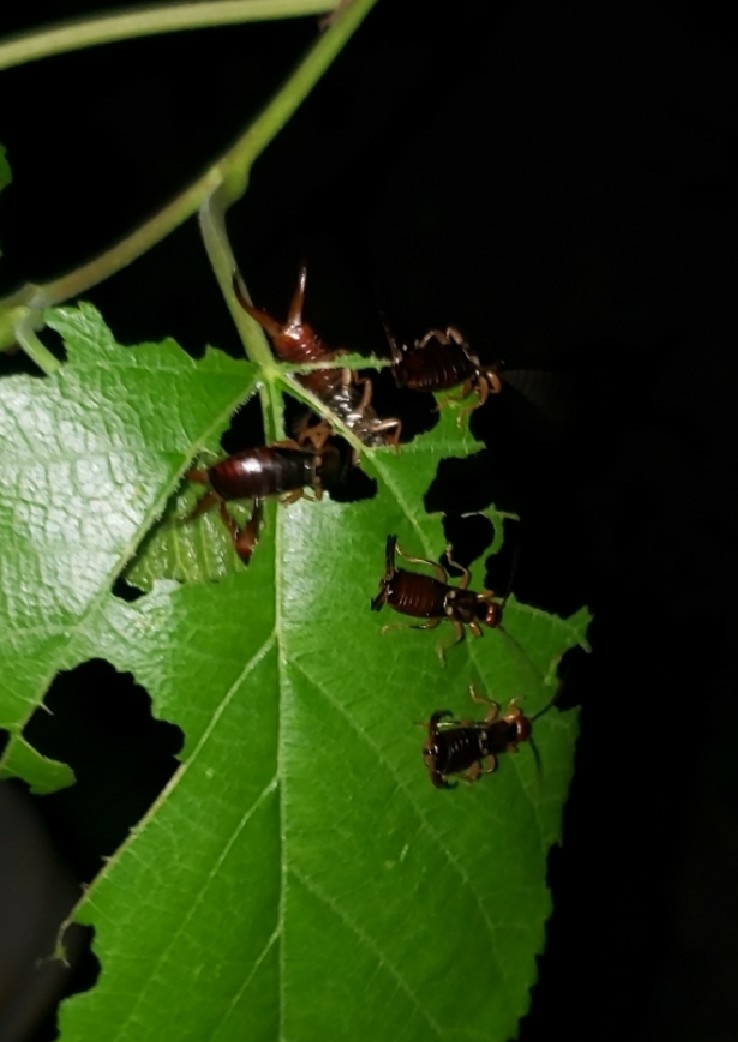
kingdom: Animalia
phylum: Arthropoda
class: Insecta
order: Dermaptera
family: Forficulidae
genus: Forficula
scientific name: Forficula
